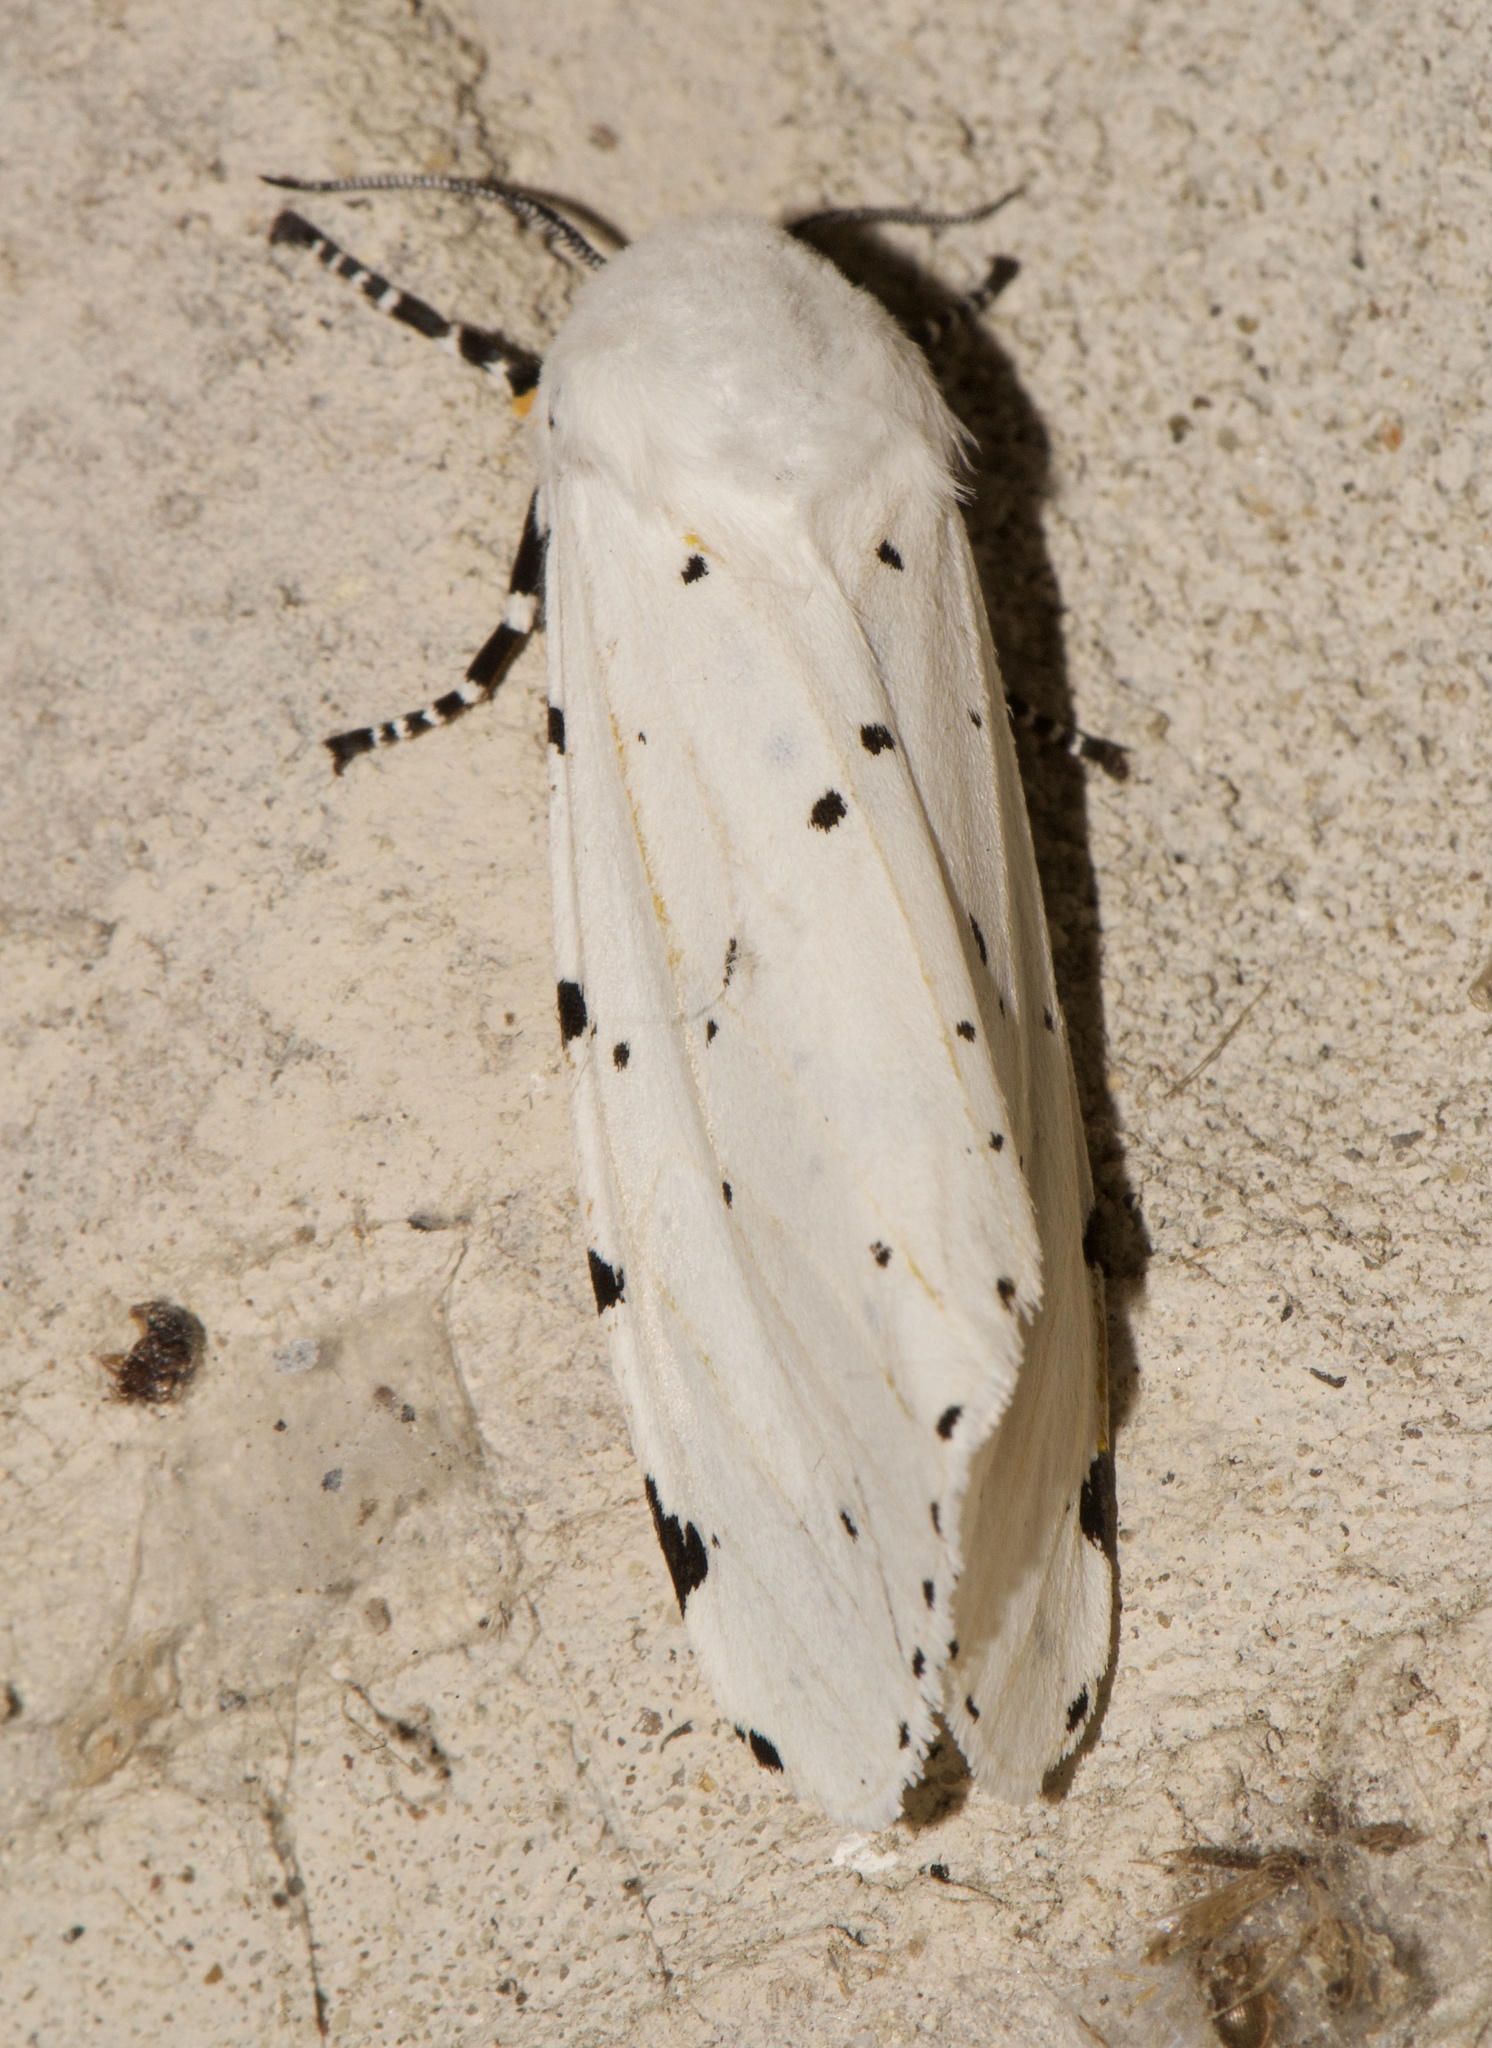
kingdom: Animalia
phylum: Arthropoda
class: Insecta
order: Lepidoptera
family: Erebidae
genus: Estigmene
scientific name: Estigmene acrea
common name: Salt marsh moth
